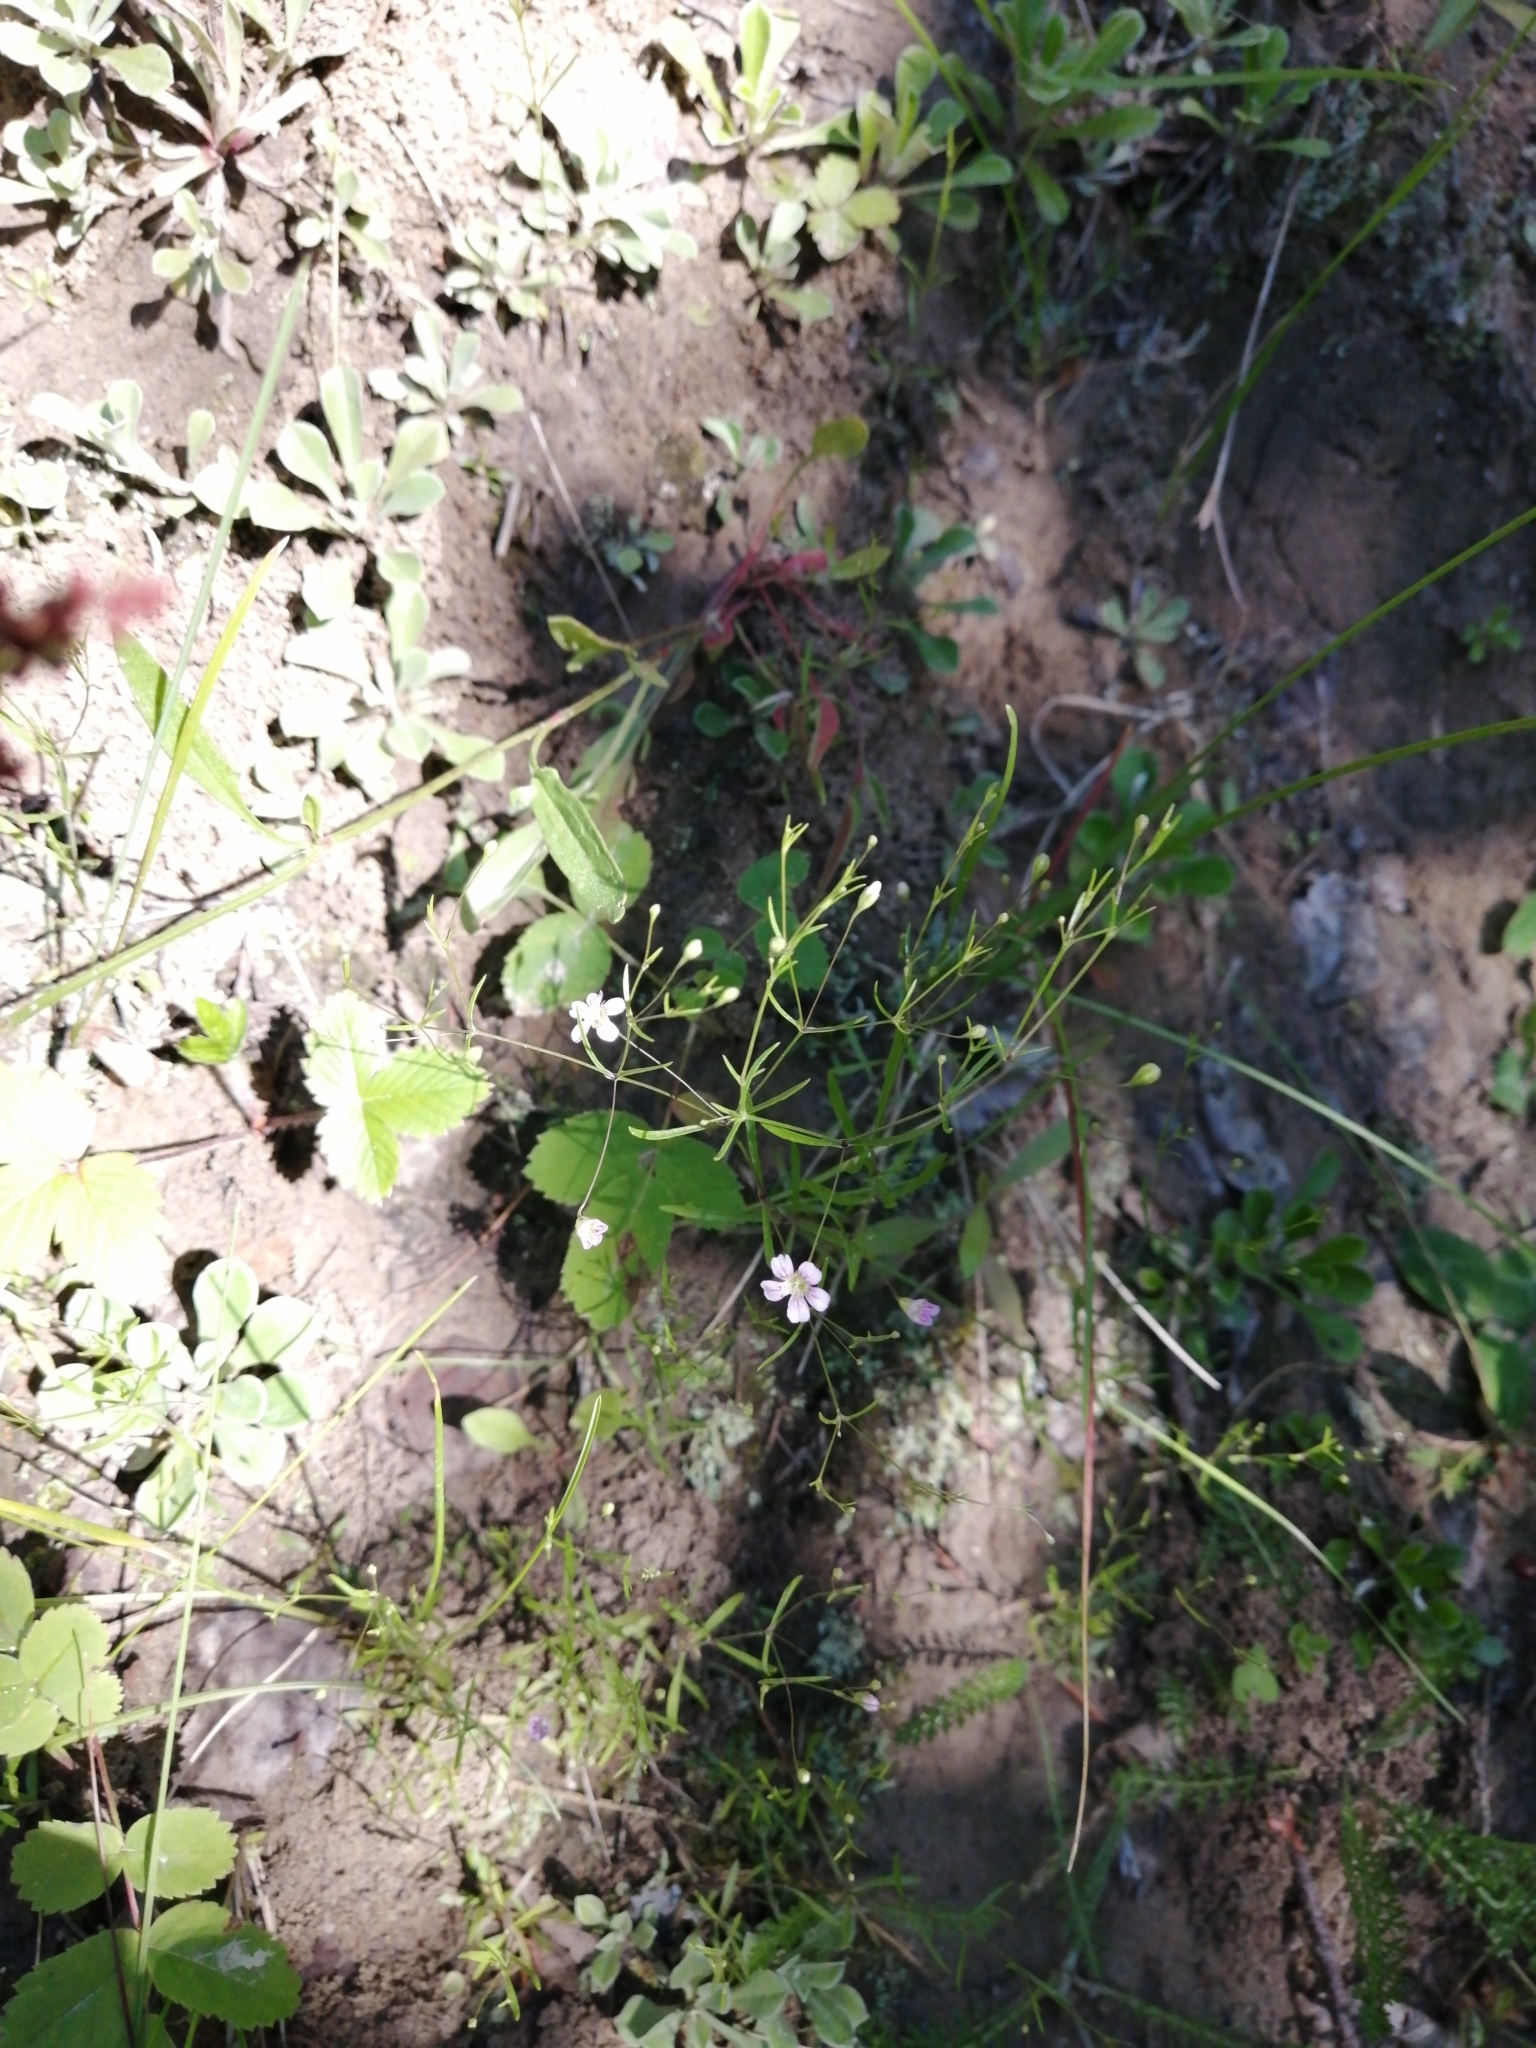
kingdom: Plantae
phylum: Tracheophyta
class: Magnoliopsida
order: Caryophyllales
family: Caryophyllaceae
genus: Psammophiliella
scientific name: Psammophiliella muralis
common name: Cushion baby's-breath
